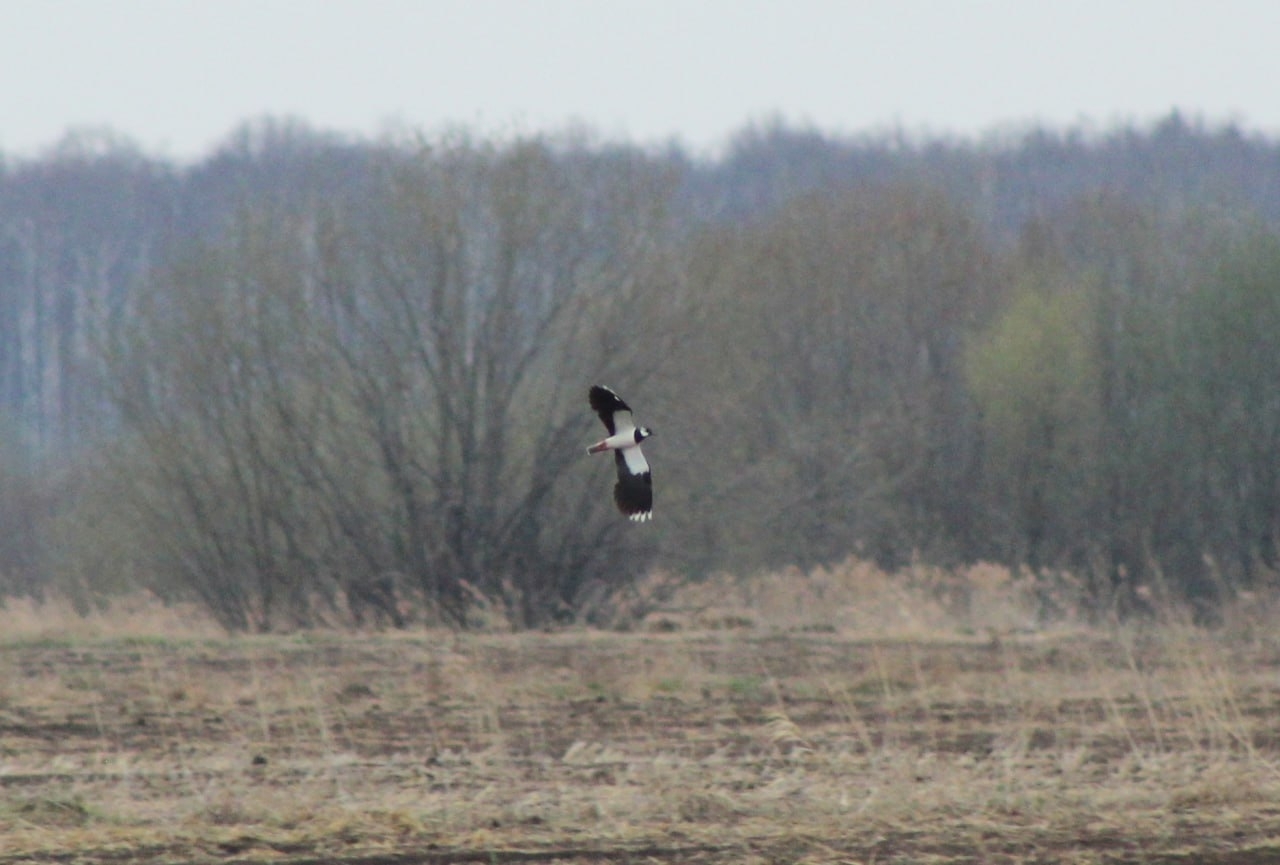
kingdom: Animalia
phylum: Chordata
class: Aves
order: Charadriiformes
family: Charadriidae
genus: Vanellus
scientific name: Vanellus vanellus
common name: Northern lapwing
